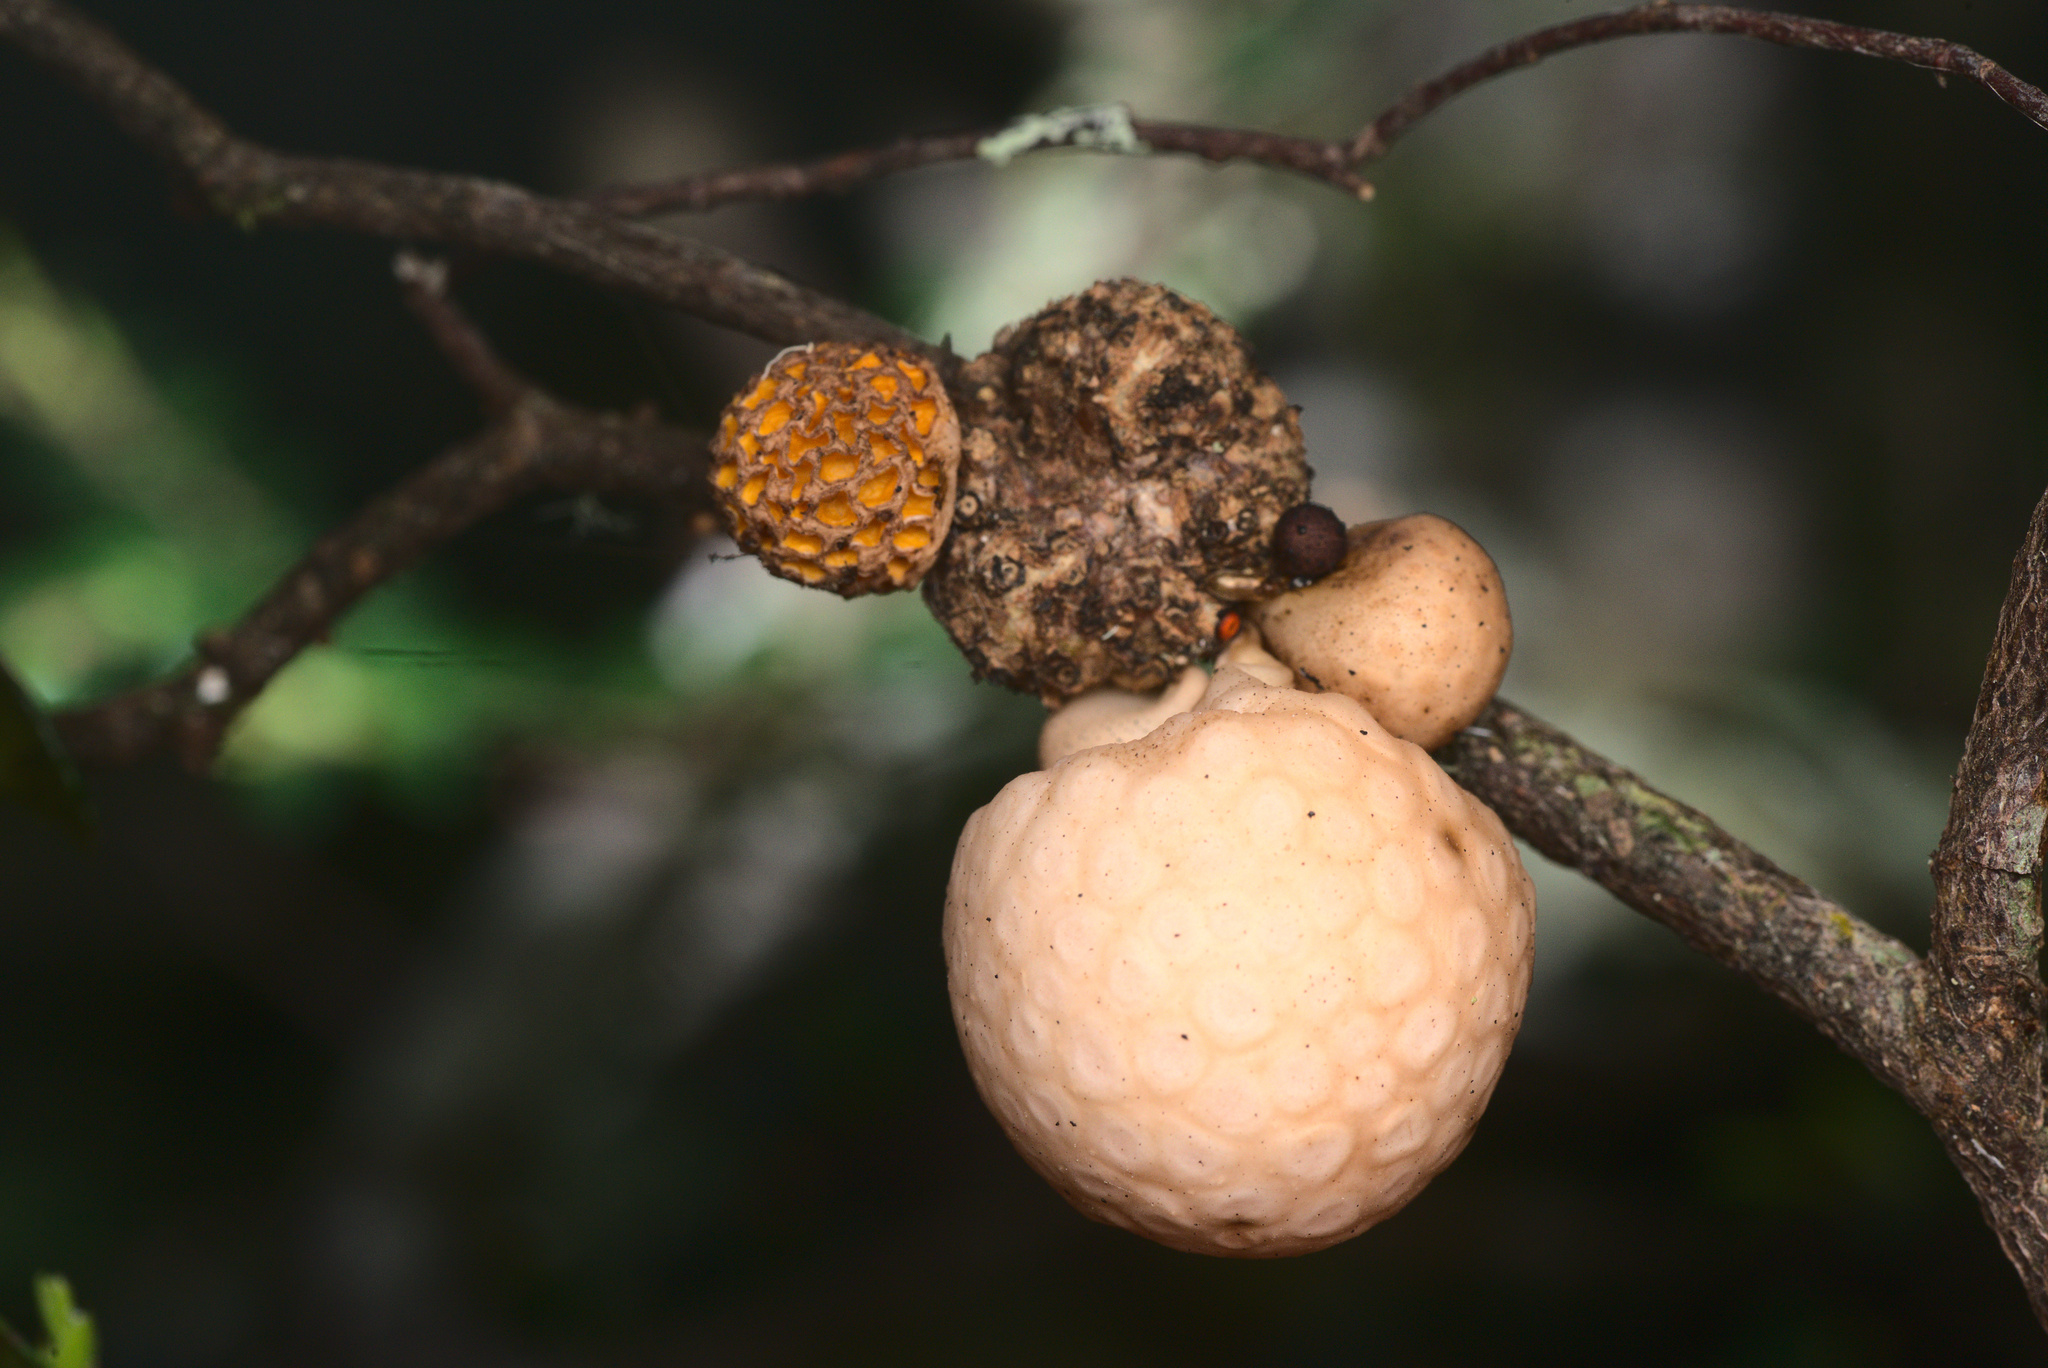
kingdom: Fungi
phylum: Ascomycota
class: Leotiomycetes
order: Cyttariales
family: Cyttariaceae
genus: Cyttaria
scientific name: Cyttaria gunnii
